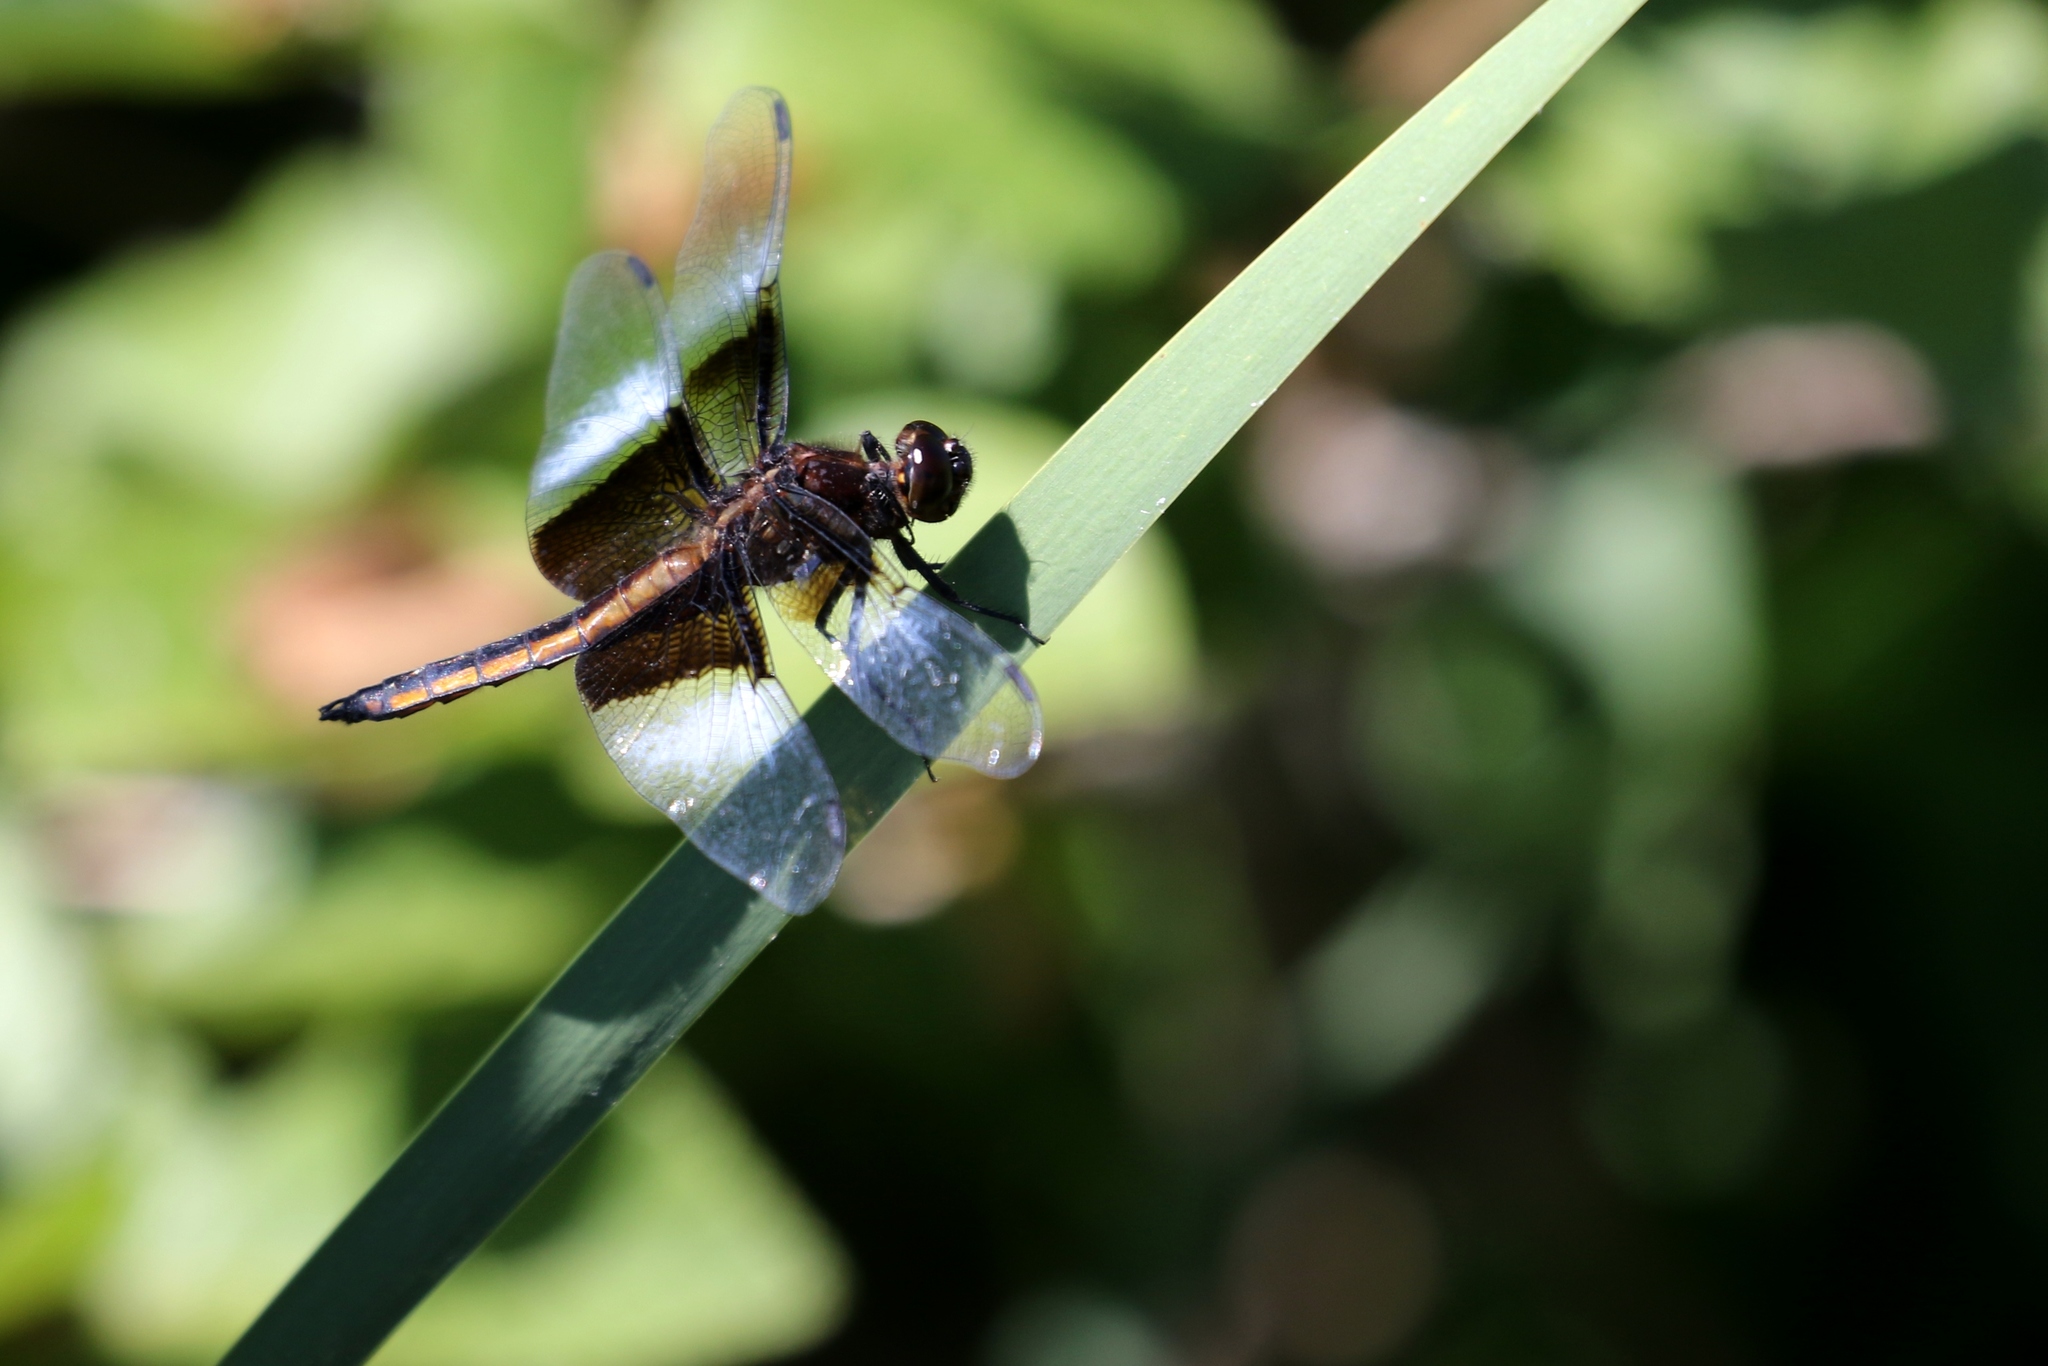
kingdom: Animalia
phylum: Arthropoda
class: Insecta
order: Odonata
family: Libellulidae
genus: Libellula
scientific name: Libellula luctuosa
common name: Widow skimmer
